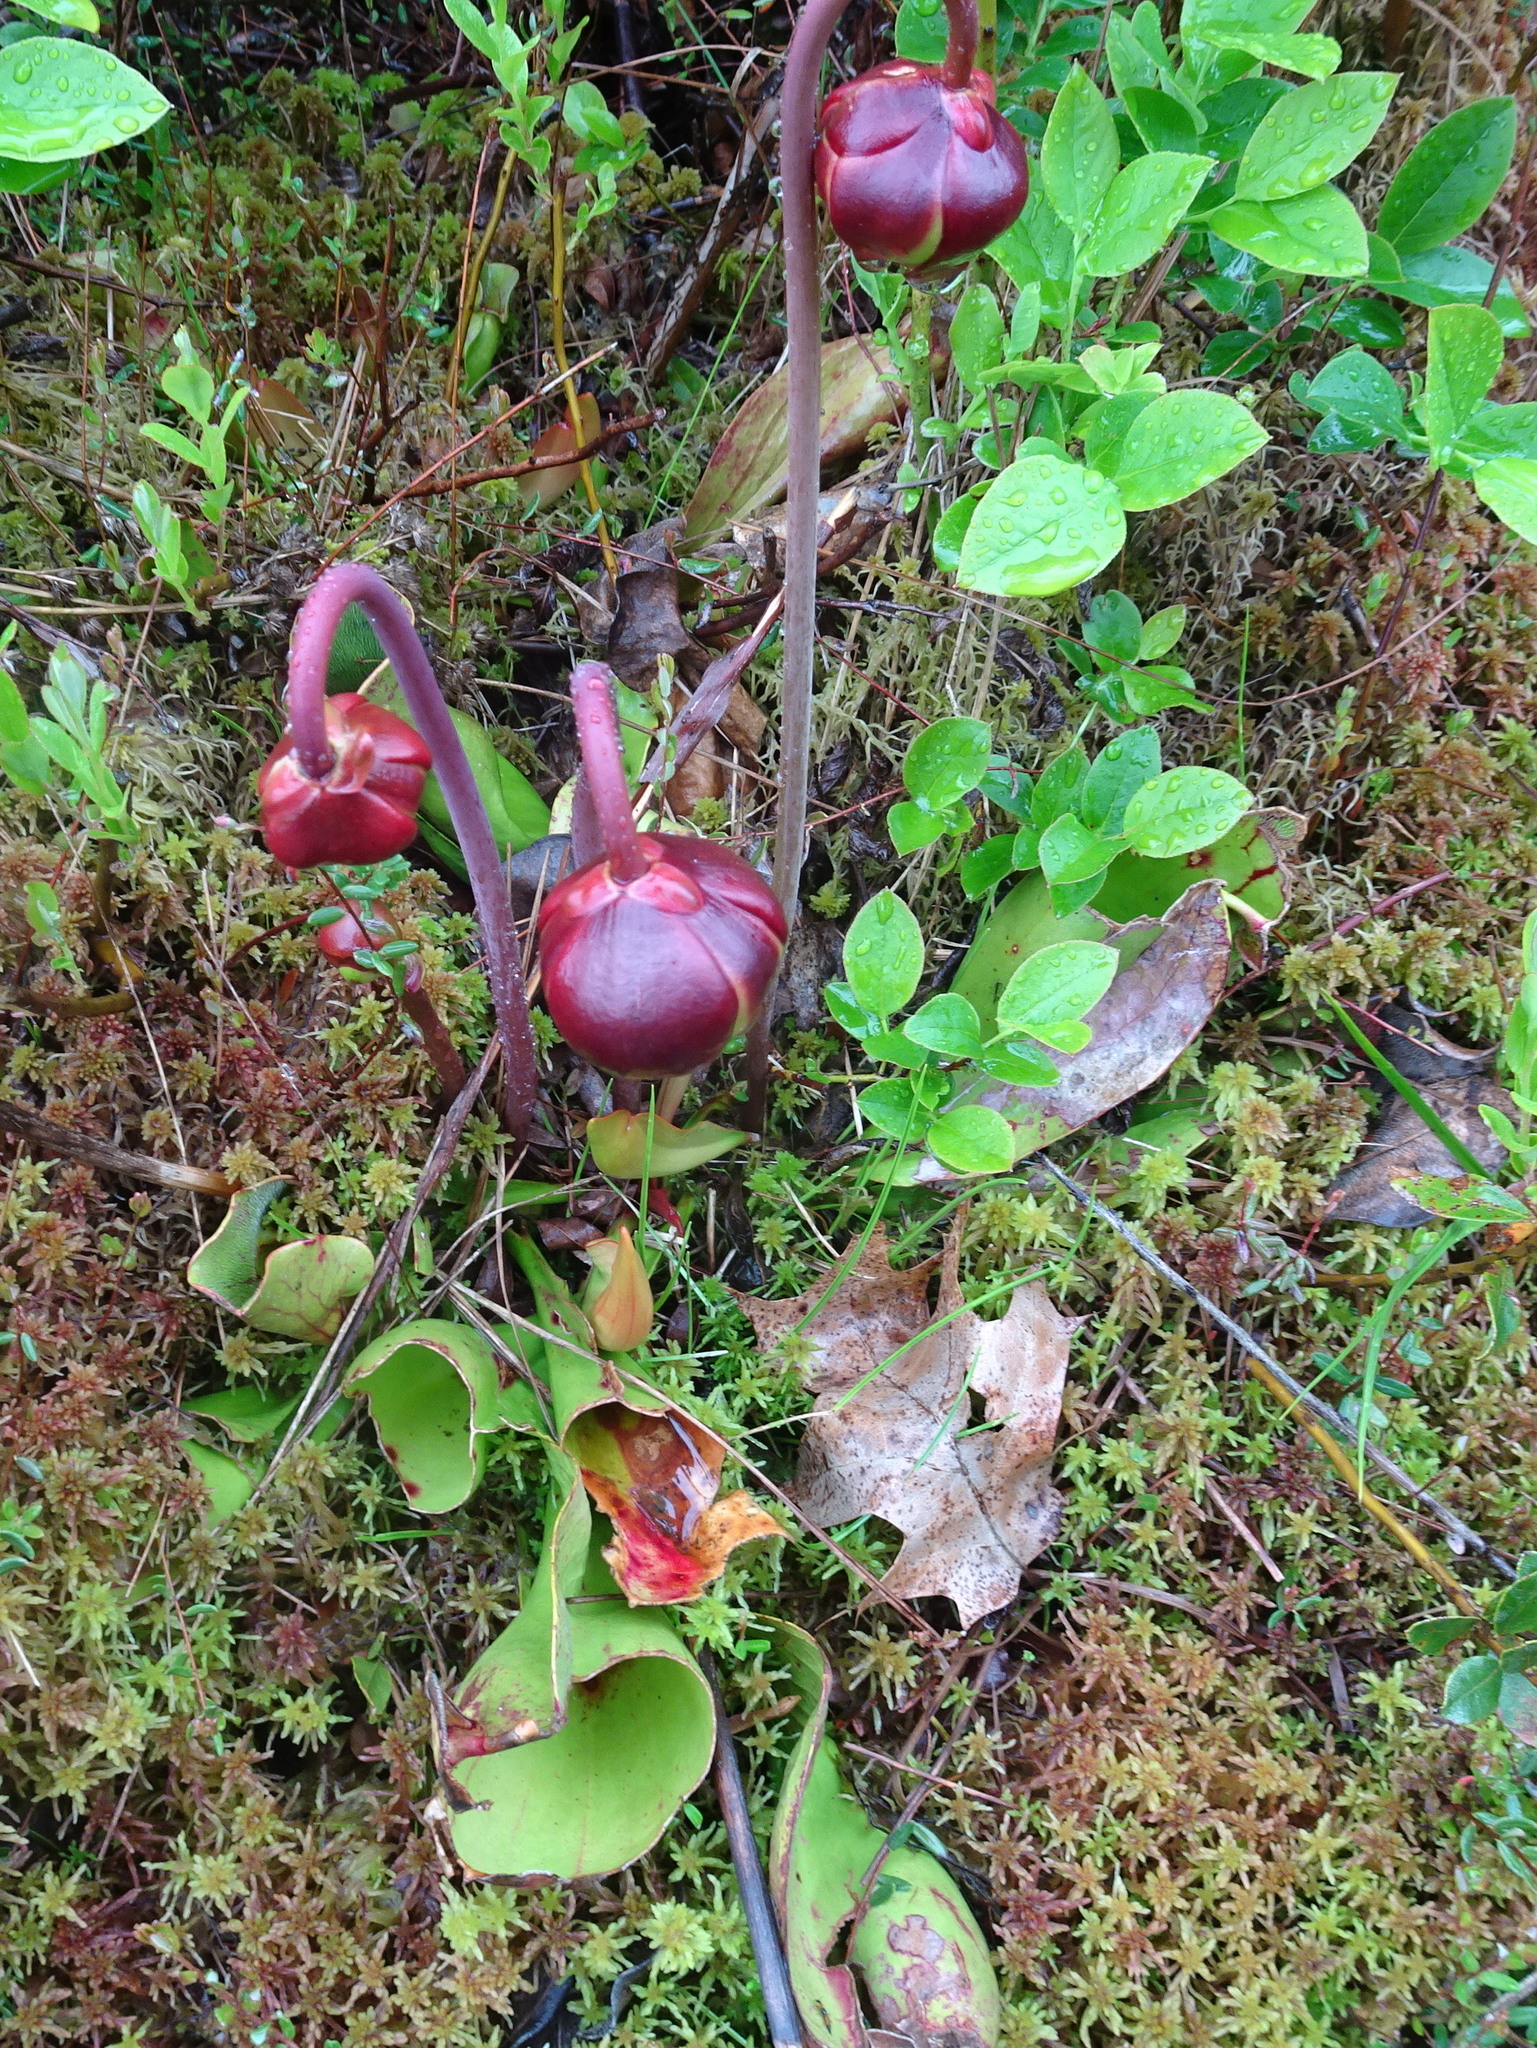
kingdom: Plantae
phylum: Tracheophyta
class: Magnoliopsida
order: Ericales
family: Sarraceniaceae
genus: Sarracenia
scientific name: Sarracenia purpurea
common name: Pitcherplant
